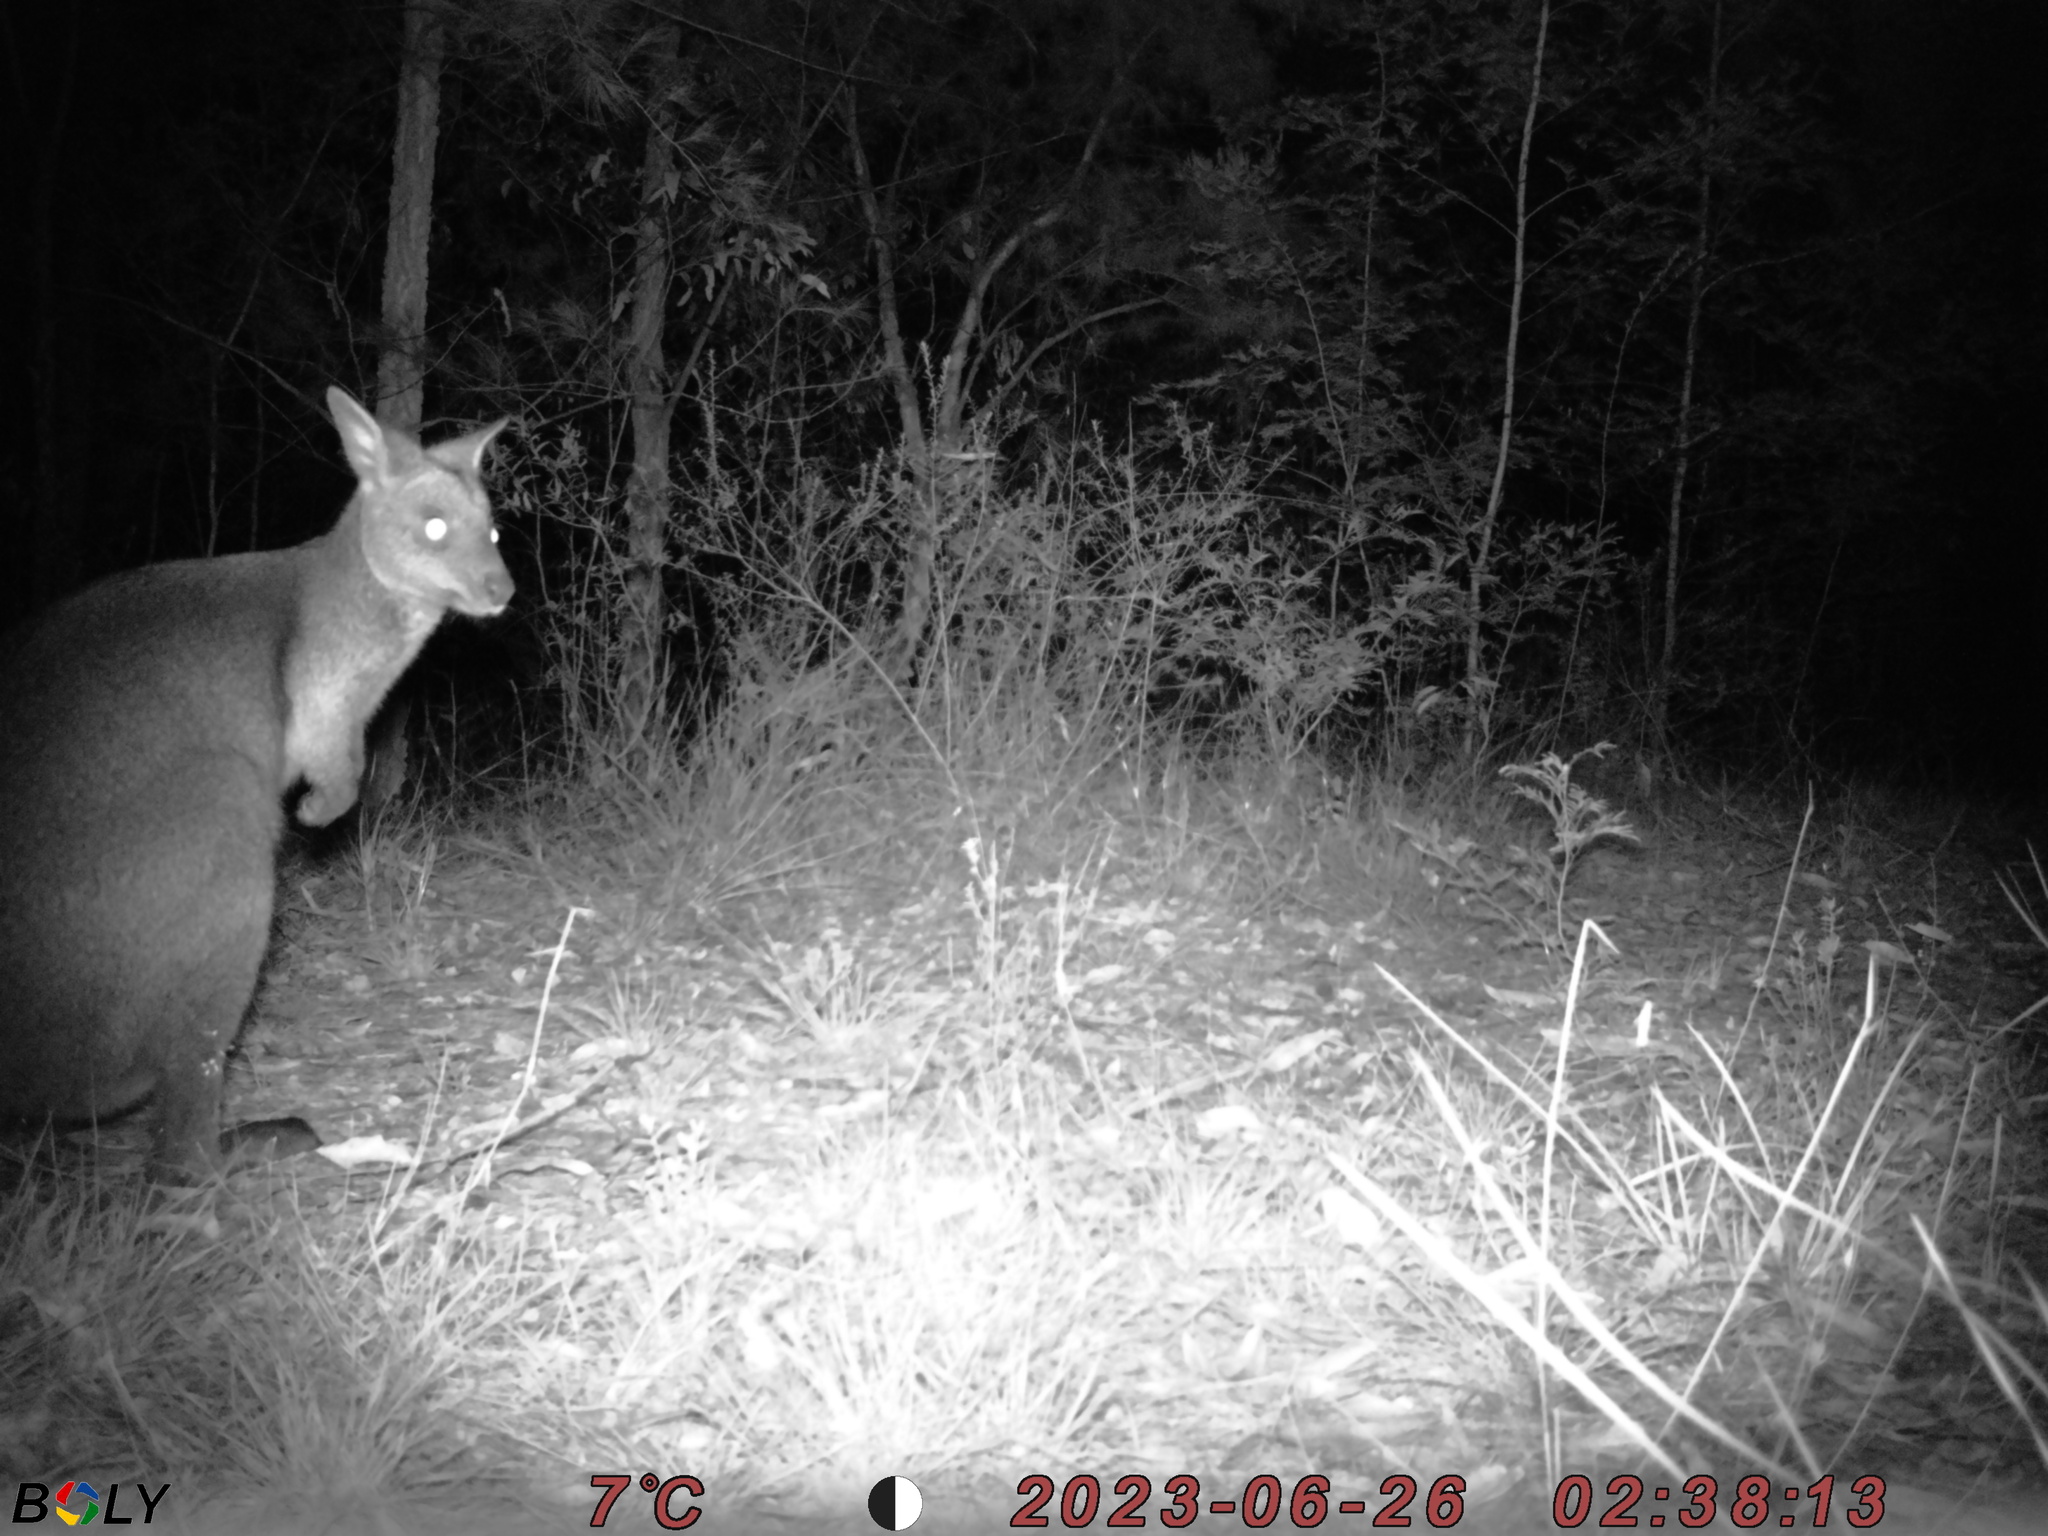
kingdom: Animalia
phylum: Chordata
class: Mammalia
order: Diprotodontia
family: Macropodidae
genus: Wallabia
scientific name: Wallabia bicolor
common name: Swamp wallaby
